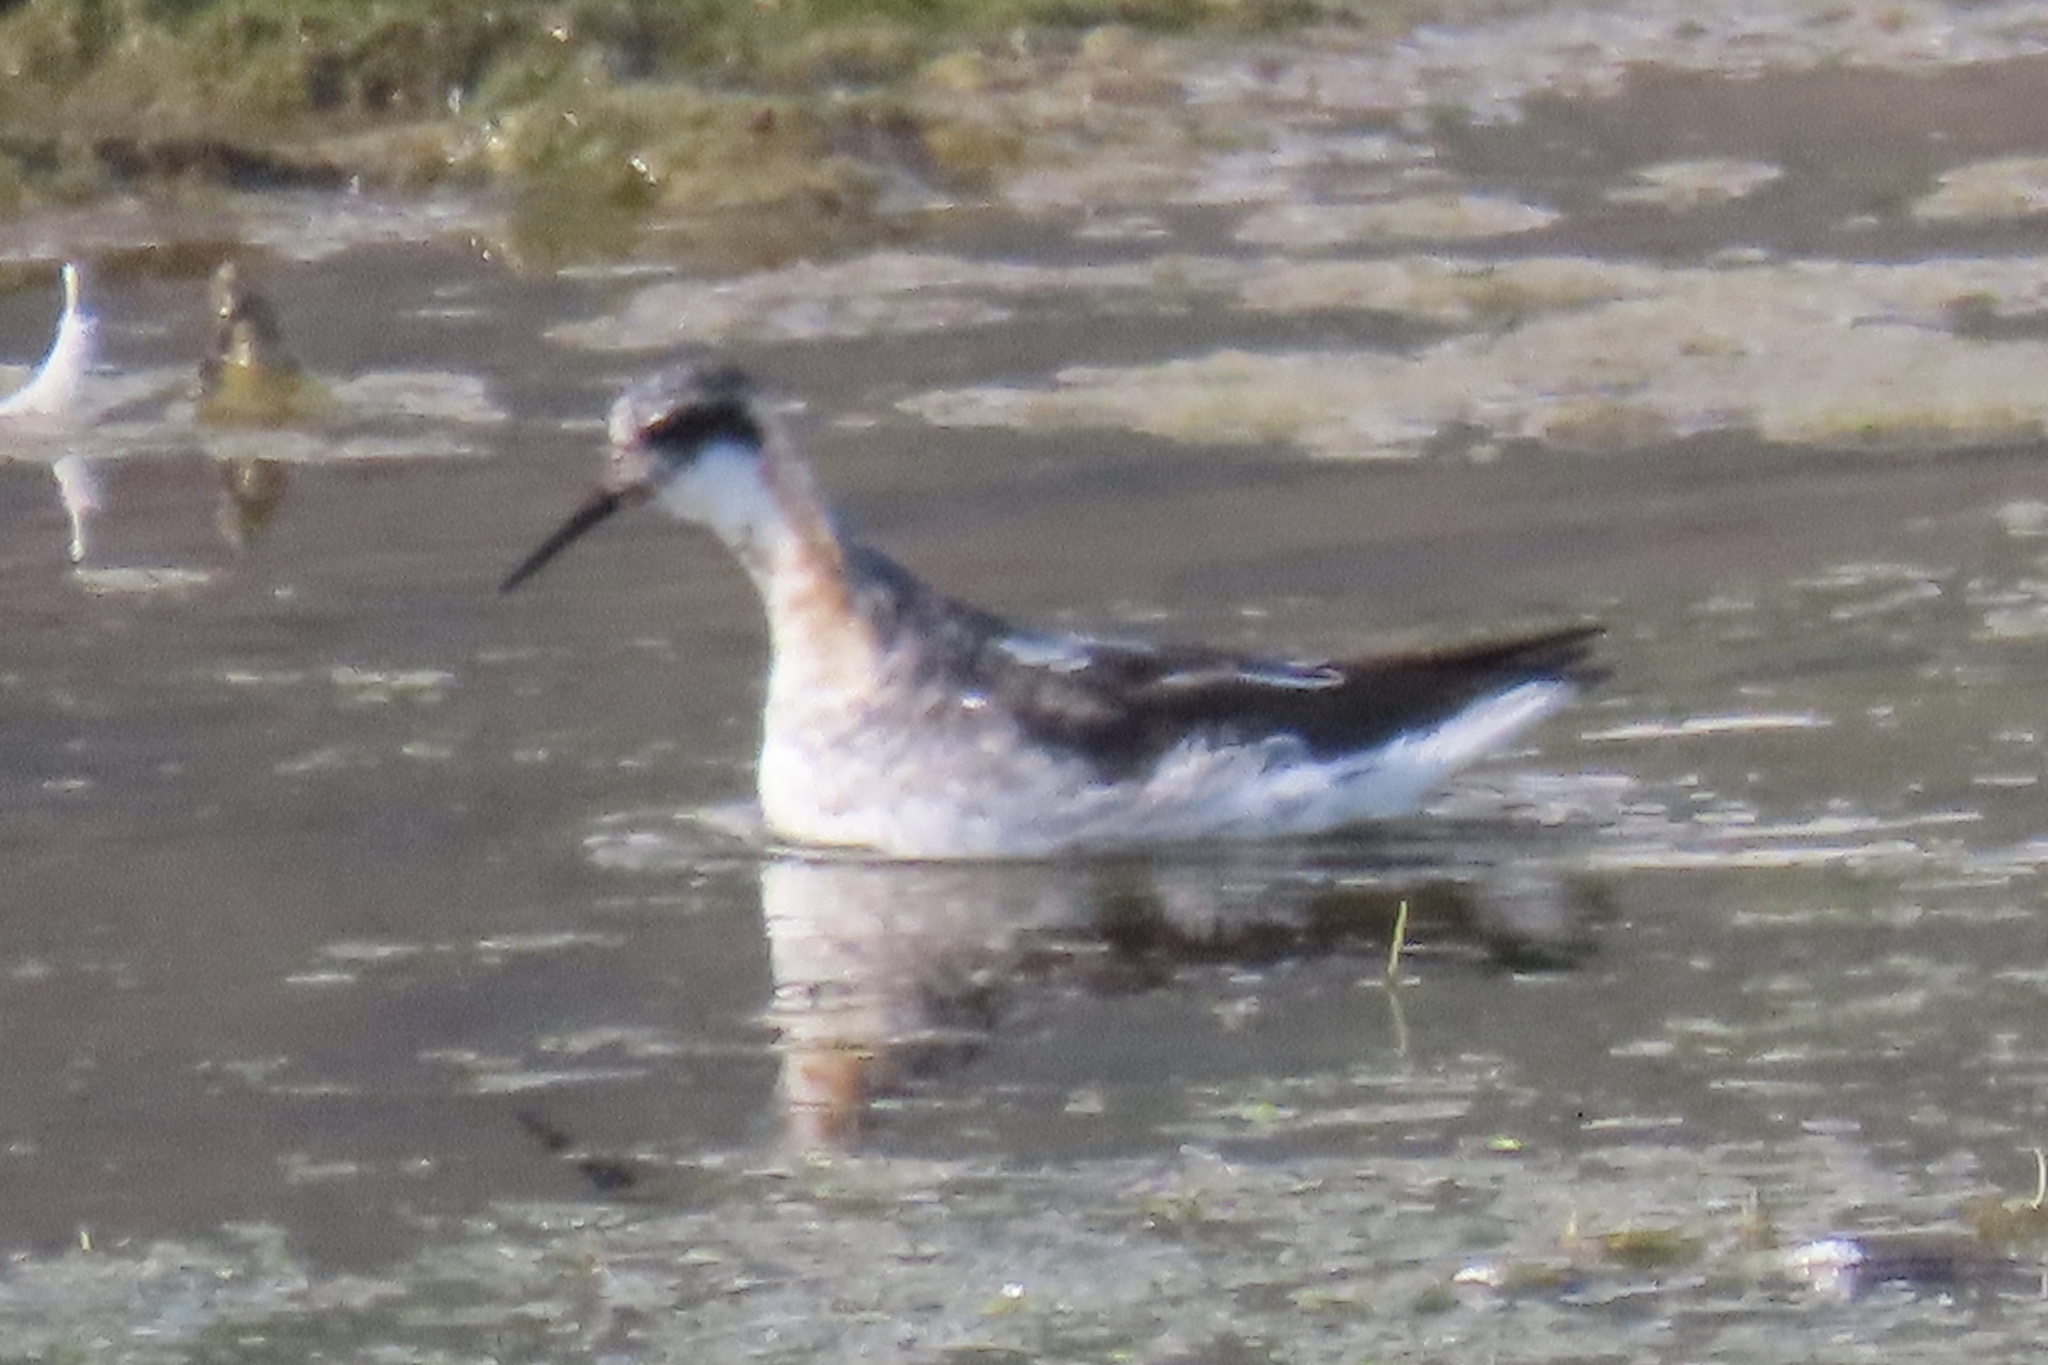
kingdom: Animalia
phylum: Chordata
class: Aves
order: Charadriiformes
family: Scolopacidae
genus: Phalaropus
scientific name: Phalaropus lobatus
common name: Red-necked phalarope
